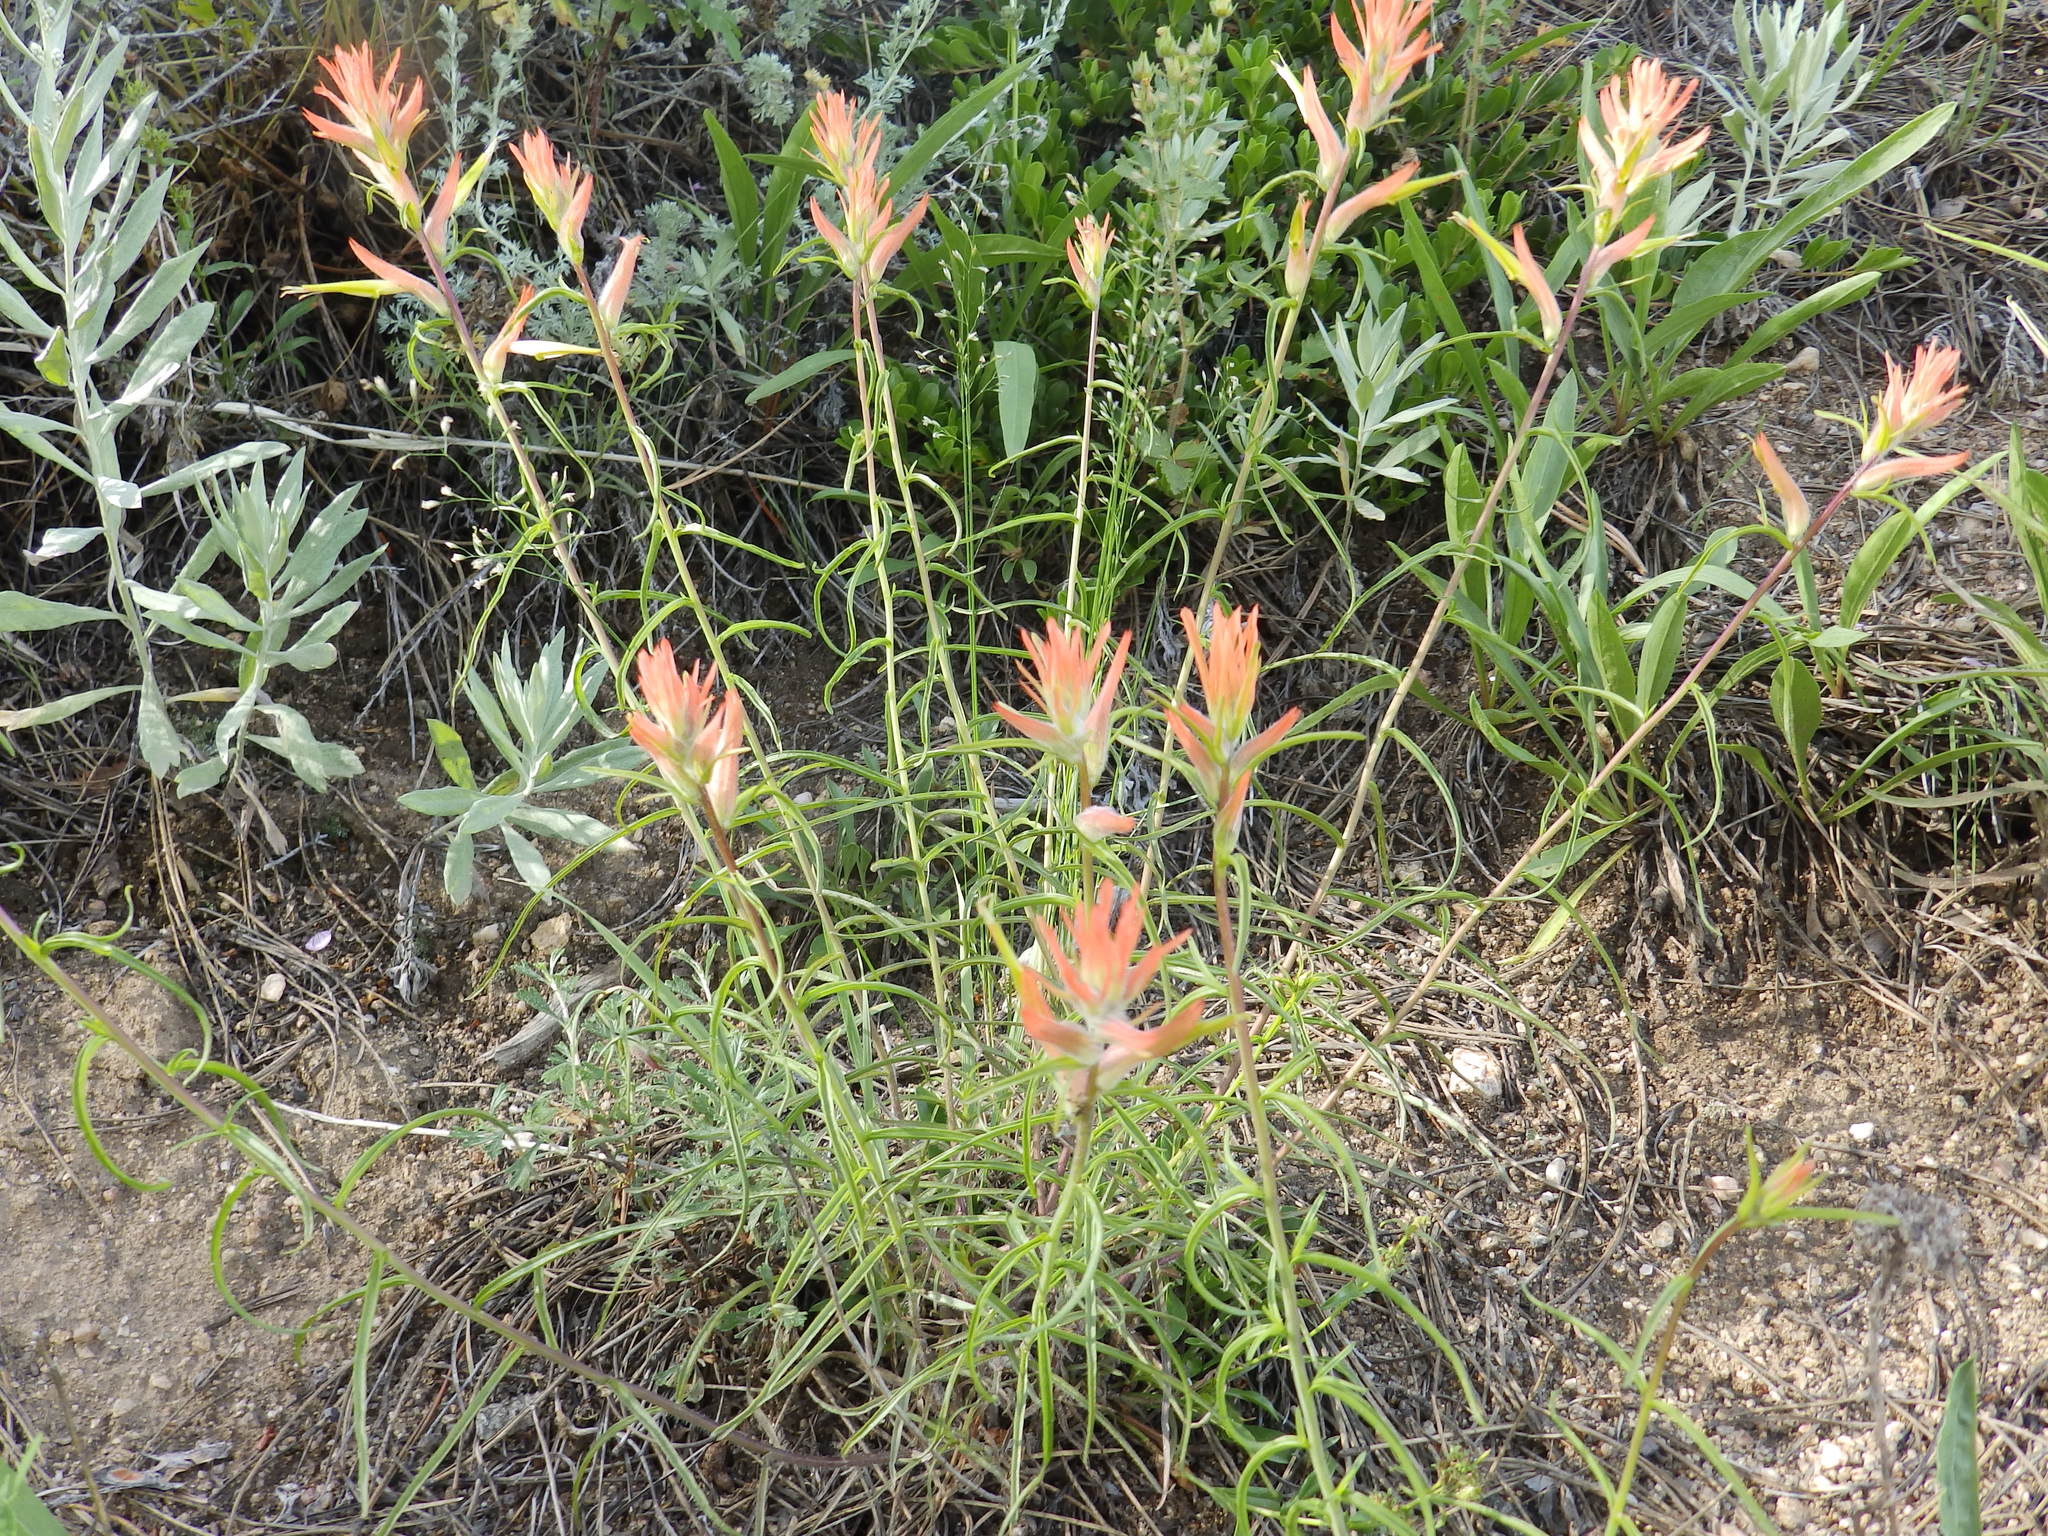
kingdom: Plantae
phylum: Tracheophyta
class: Magnoliopsida
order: Lamiales
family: Orobanchaceae
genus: Castilleja
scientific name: Castilleja linariifolia
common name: Wyoming paintbrush
